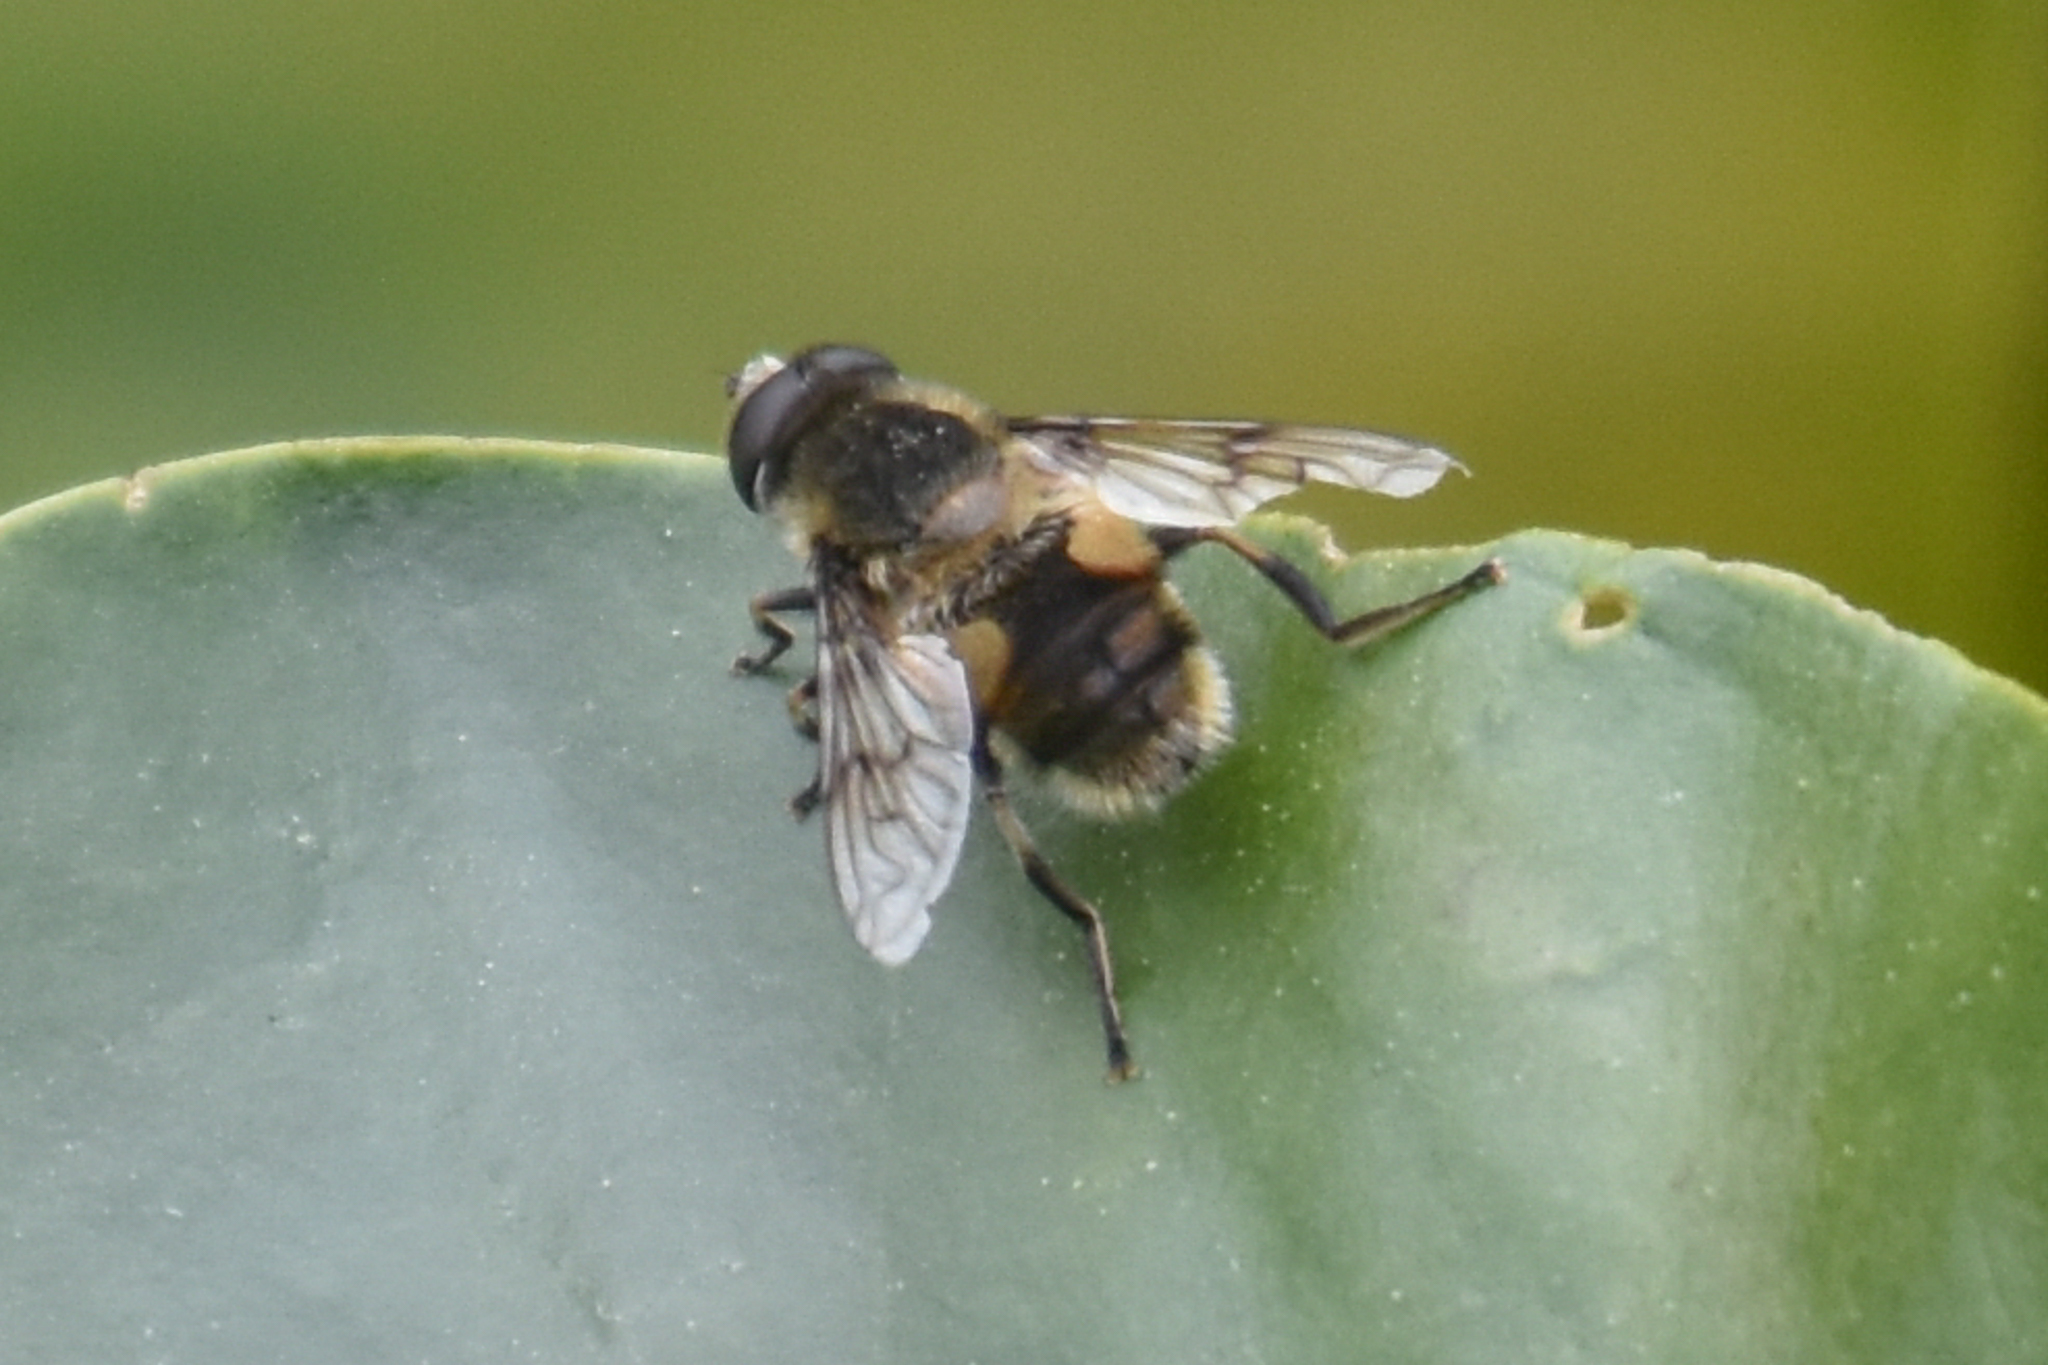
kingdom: Animalia
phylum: Arthropoda
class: Insecta
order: Diptera
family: Syrphidae
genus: Eristalis
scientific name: Eristalis anthophorina
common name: Orange-spotted drone fly
